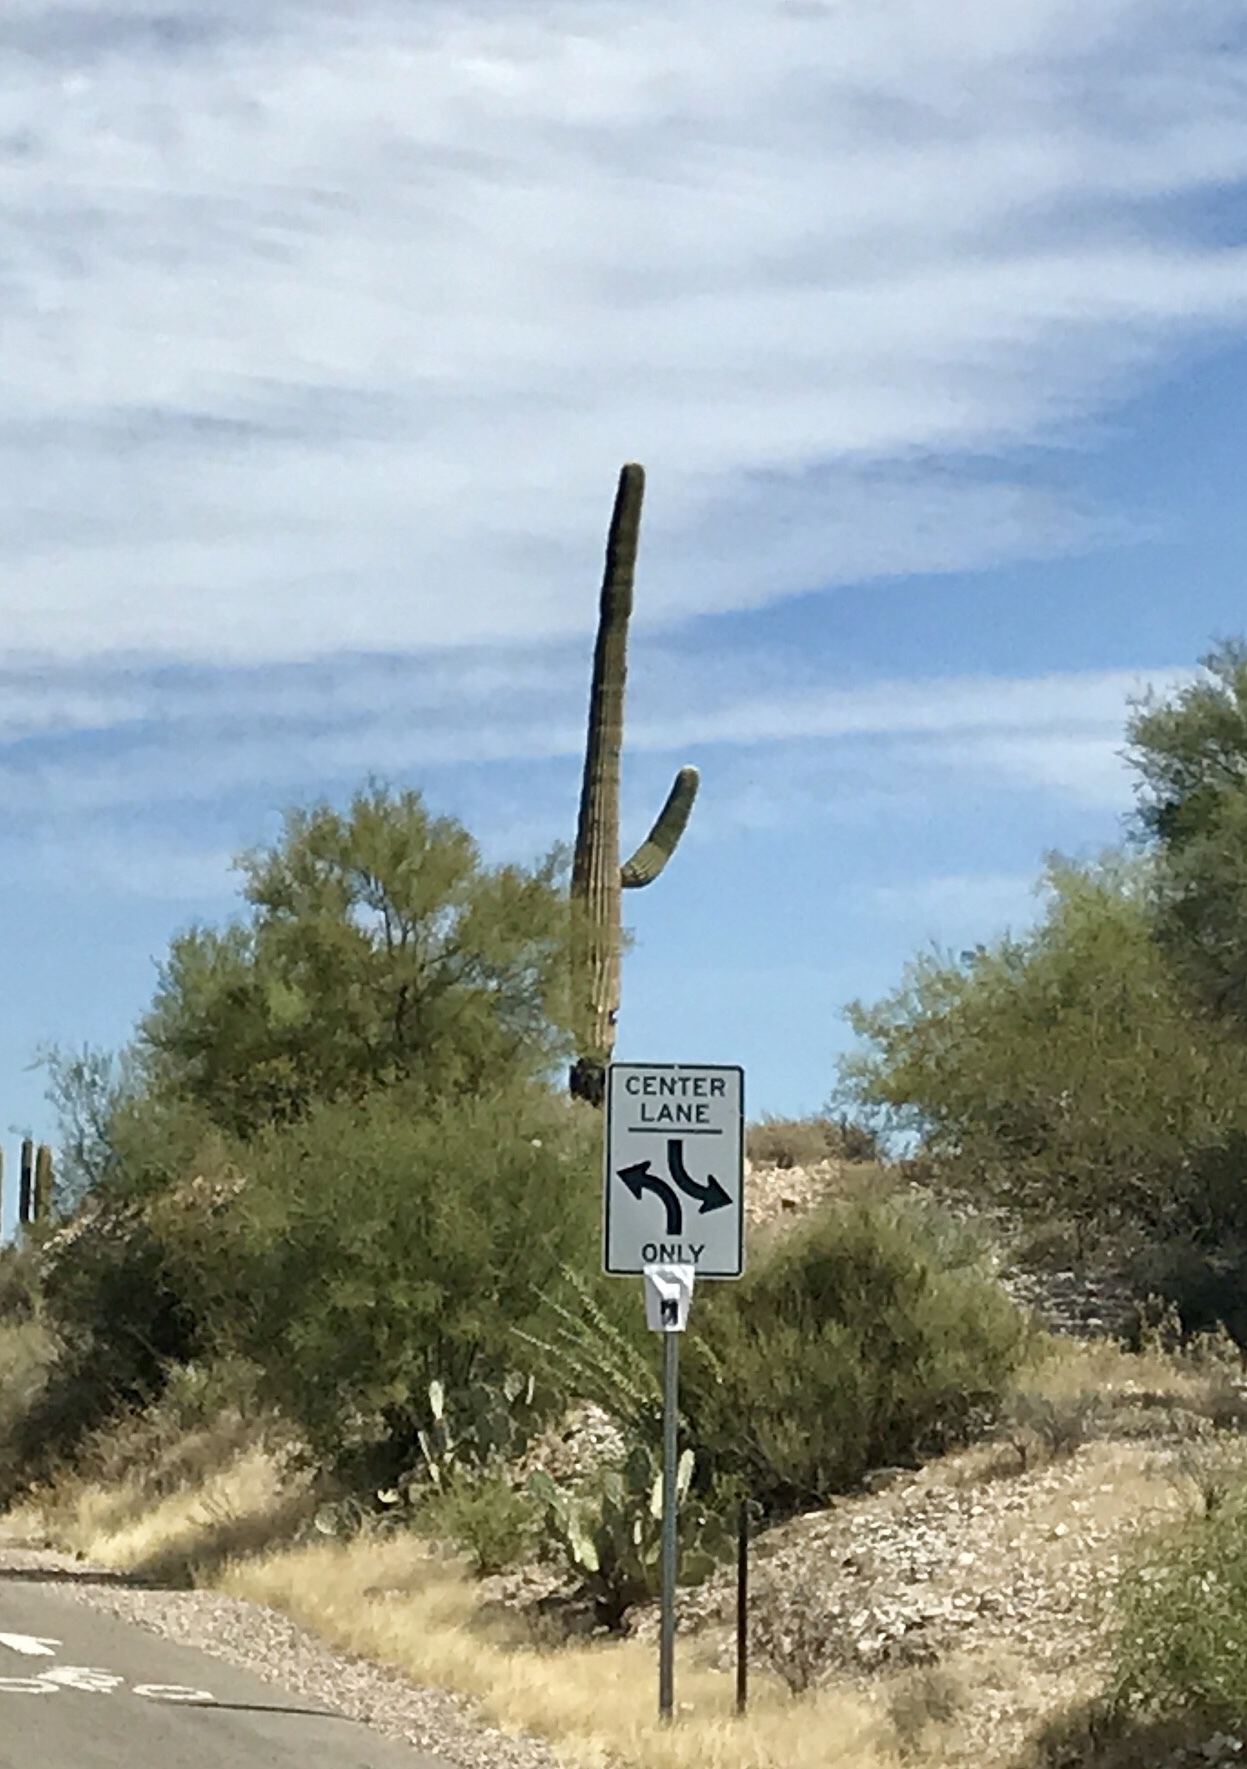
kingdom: Plantae
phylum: Tracheophyta
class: Magnoliopsida
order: Caryophyllales
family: Cactaceae
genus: Carnegiea
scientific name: Carnegiea gigantea
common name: Saguaro
